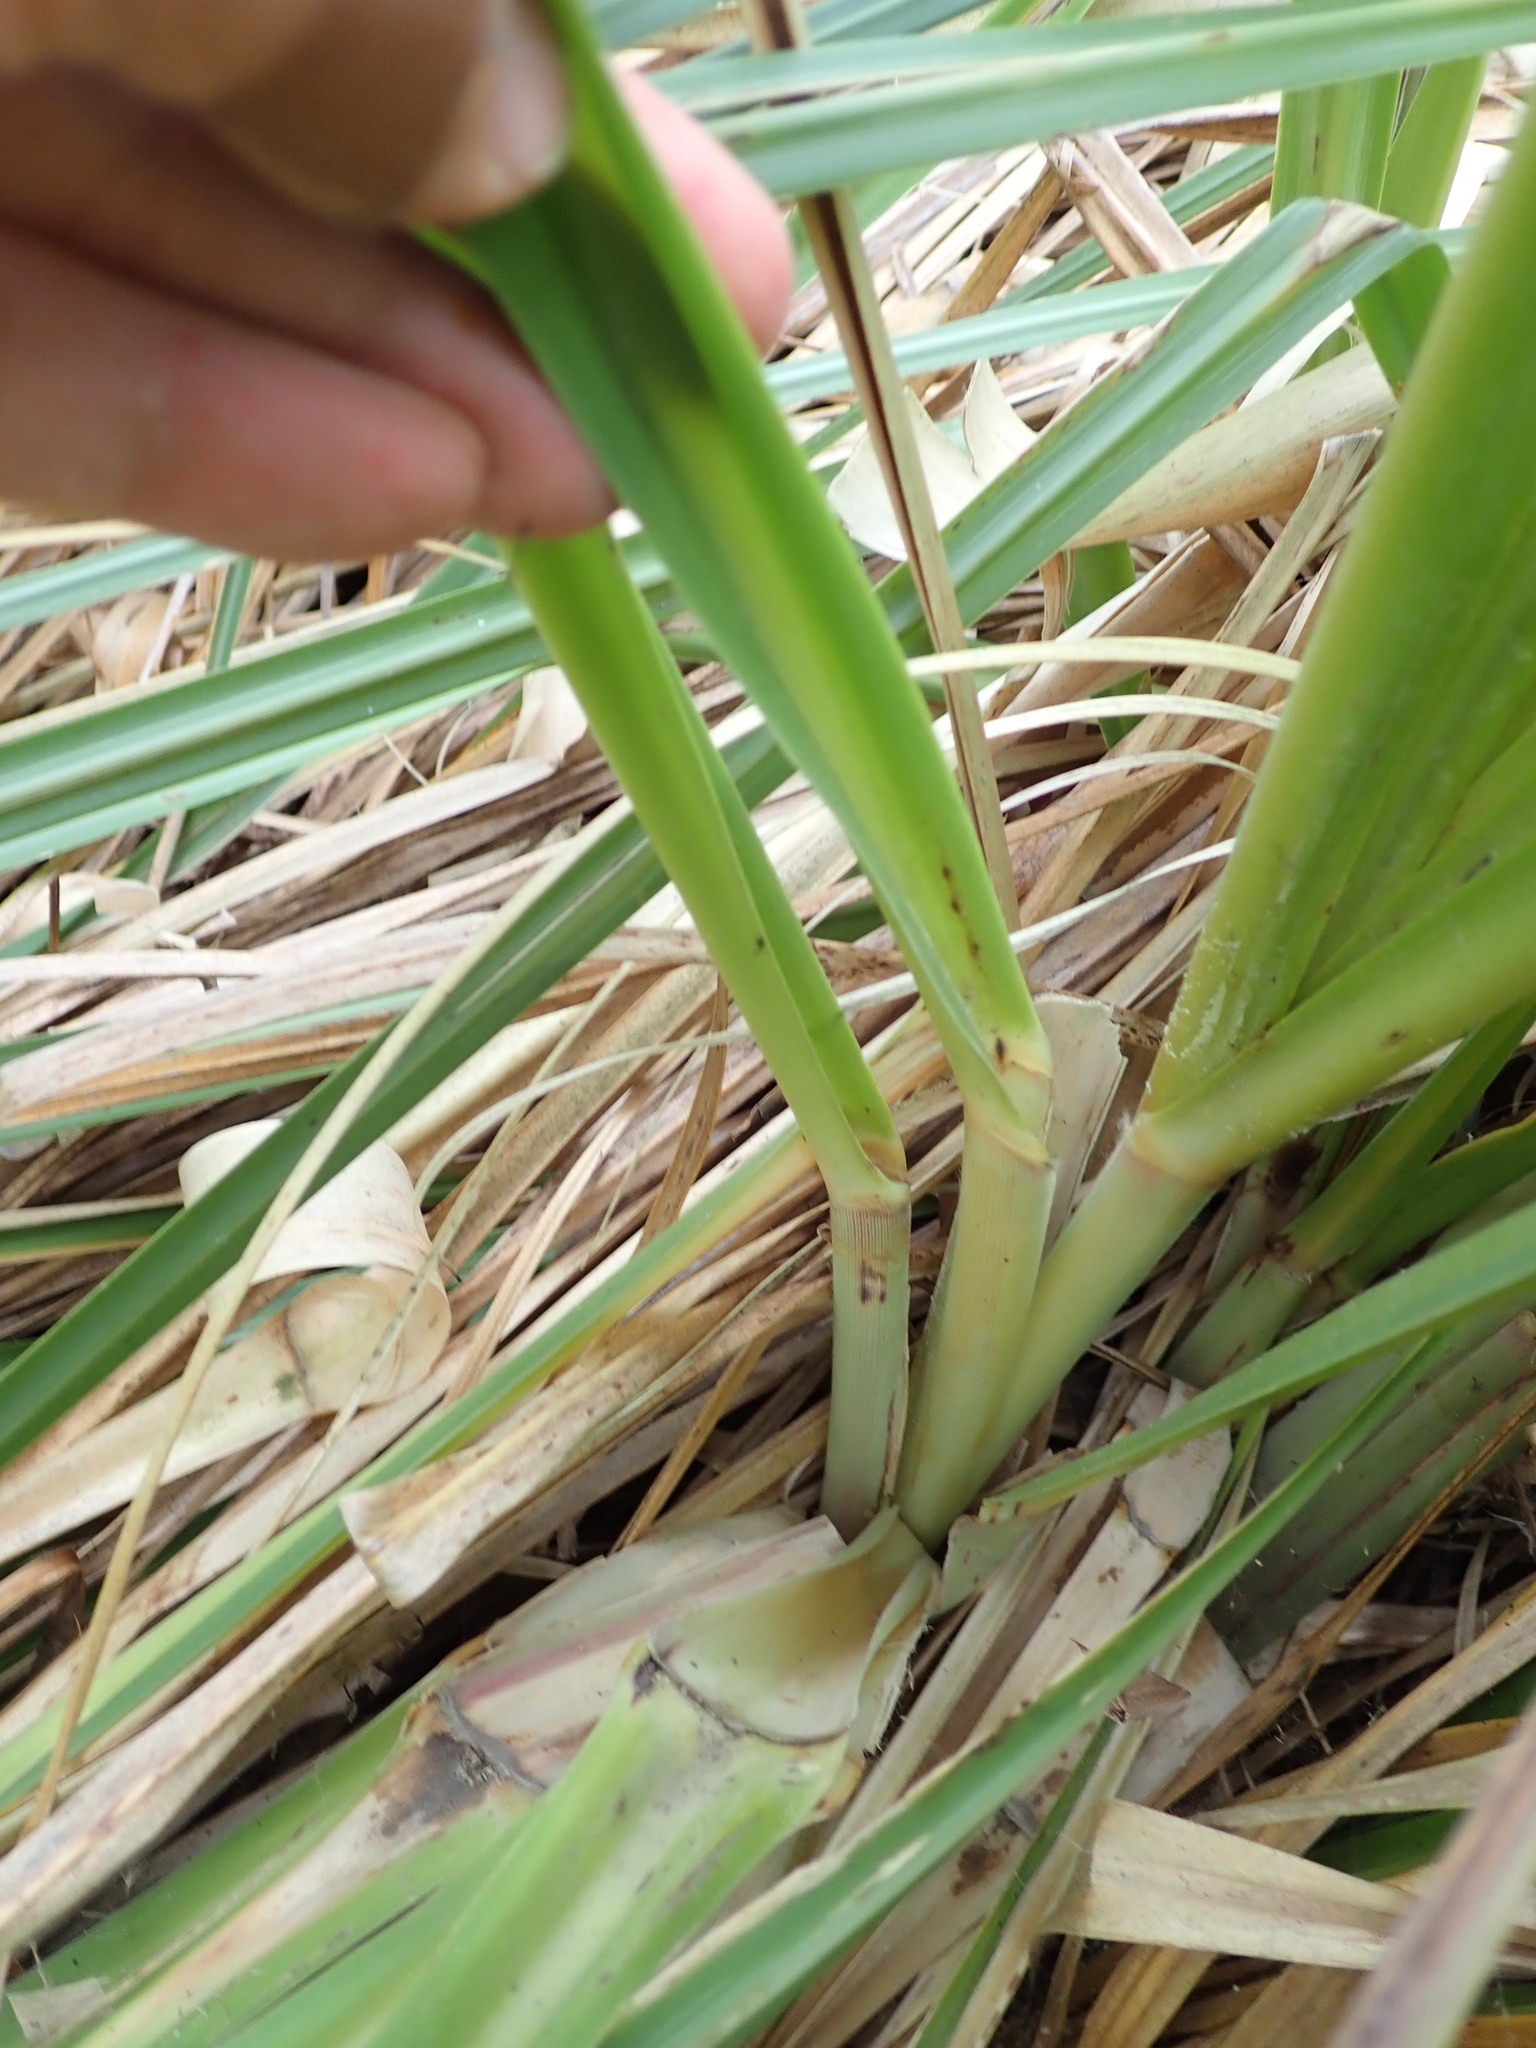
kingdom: Plantae
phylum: Tracheophyta
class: Liliopsida
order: Poales
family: Poaceae
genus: Cortaderia
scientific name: Cortaderia selloana
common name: Uruguayan pampas grass
